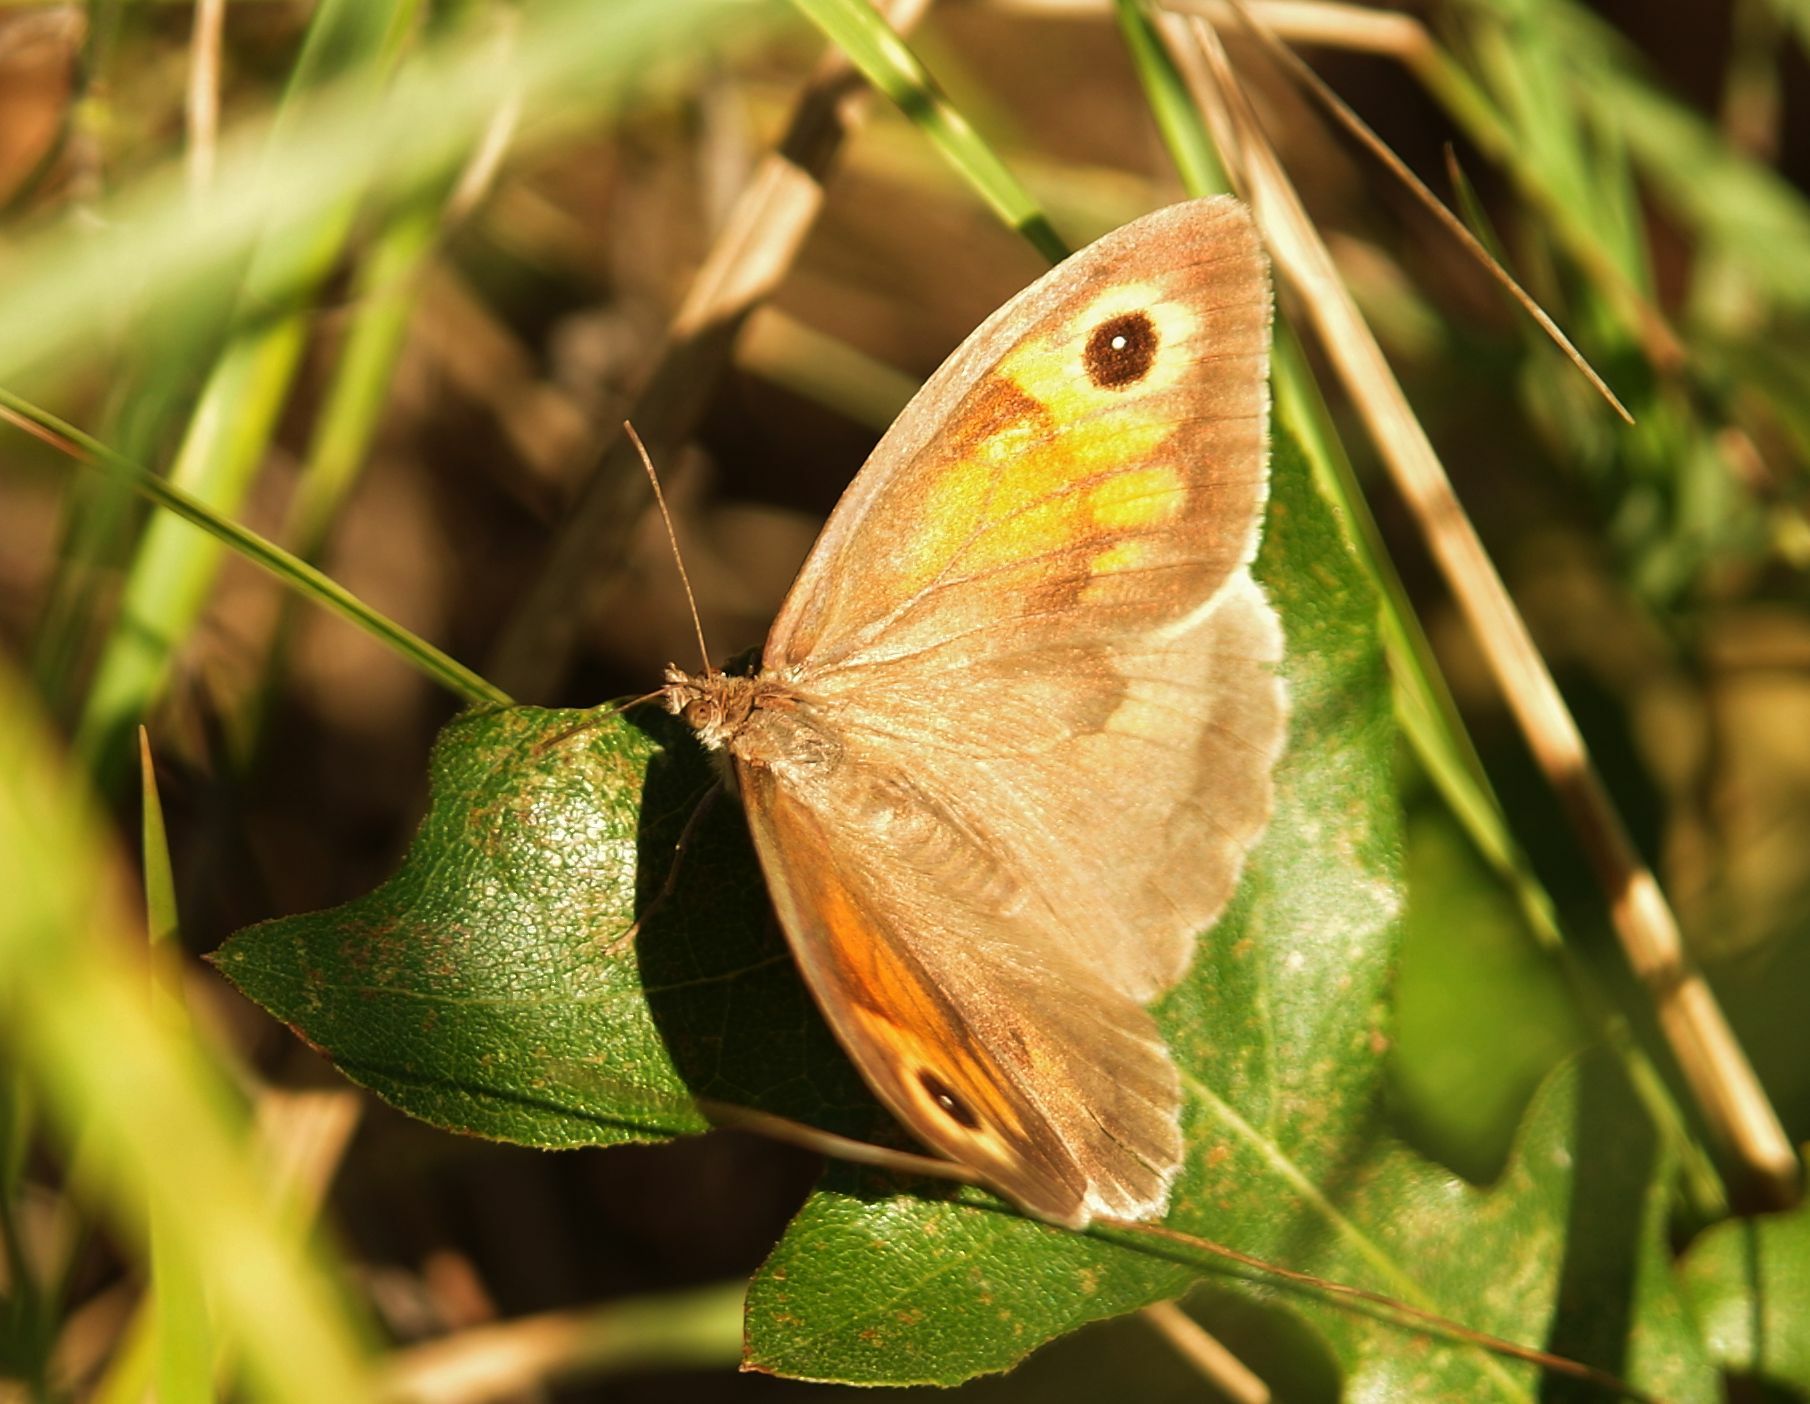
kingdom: Animalia
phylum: Arthropoda
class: Insecta
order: Lepidoptera
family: Nymphalidae
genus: Maniola
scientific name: Maniola jurtina
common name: Meadow brown
